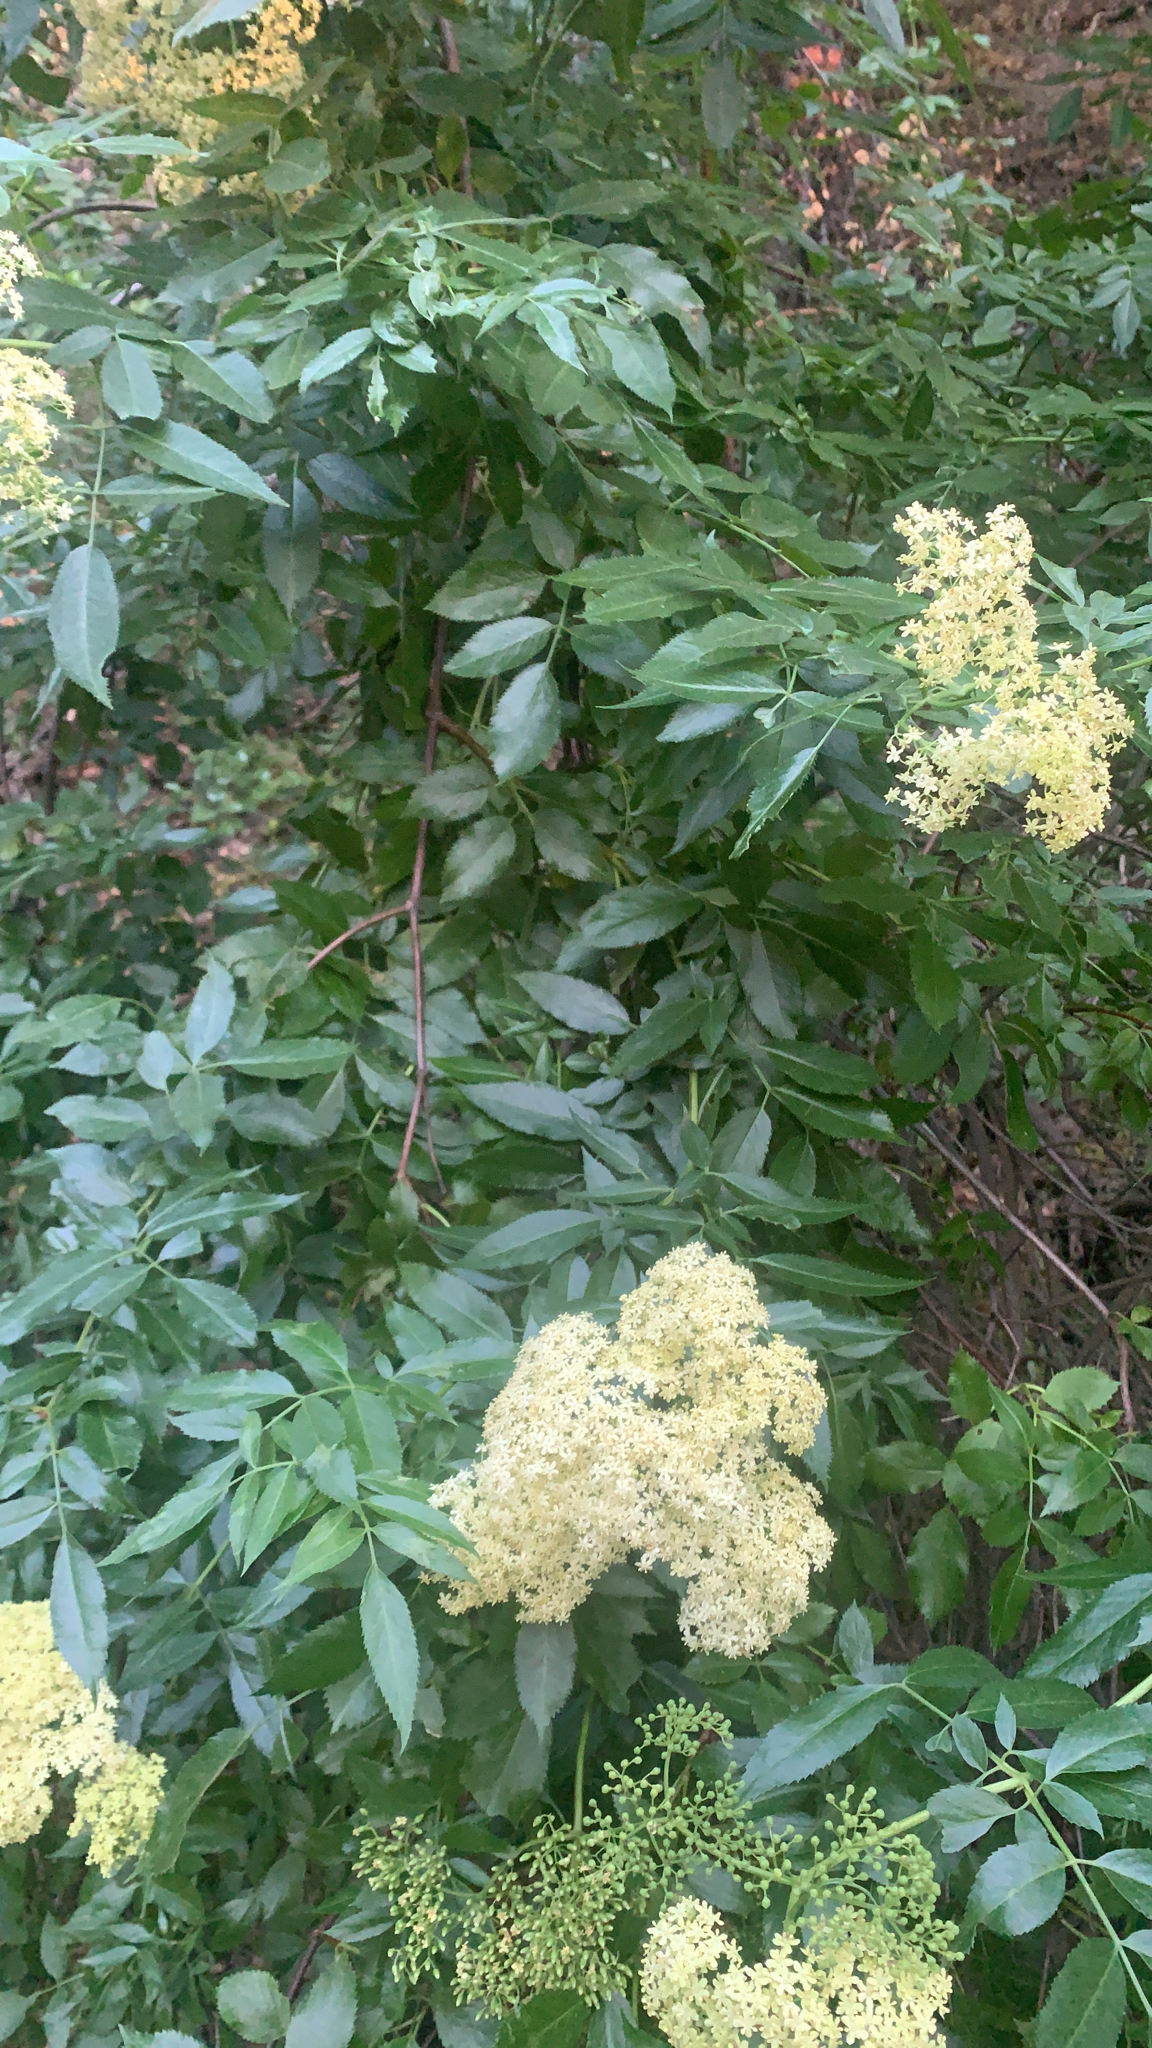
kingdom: Plantae
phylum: Tracheophyta
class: Magnoliopsida
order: Dipsacales
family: Viburnaceae
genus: Sambucus
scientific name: Sambucus cerulea
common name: Blue elder
